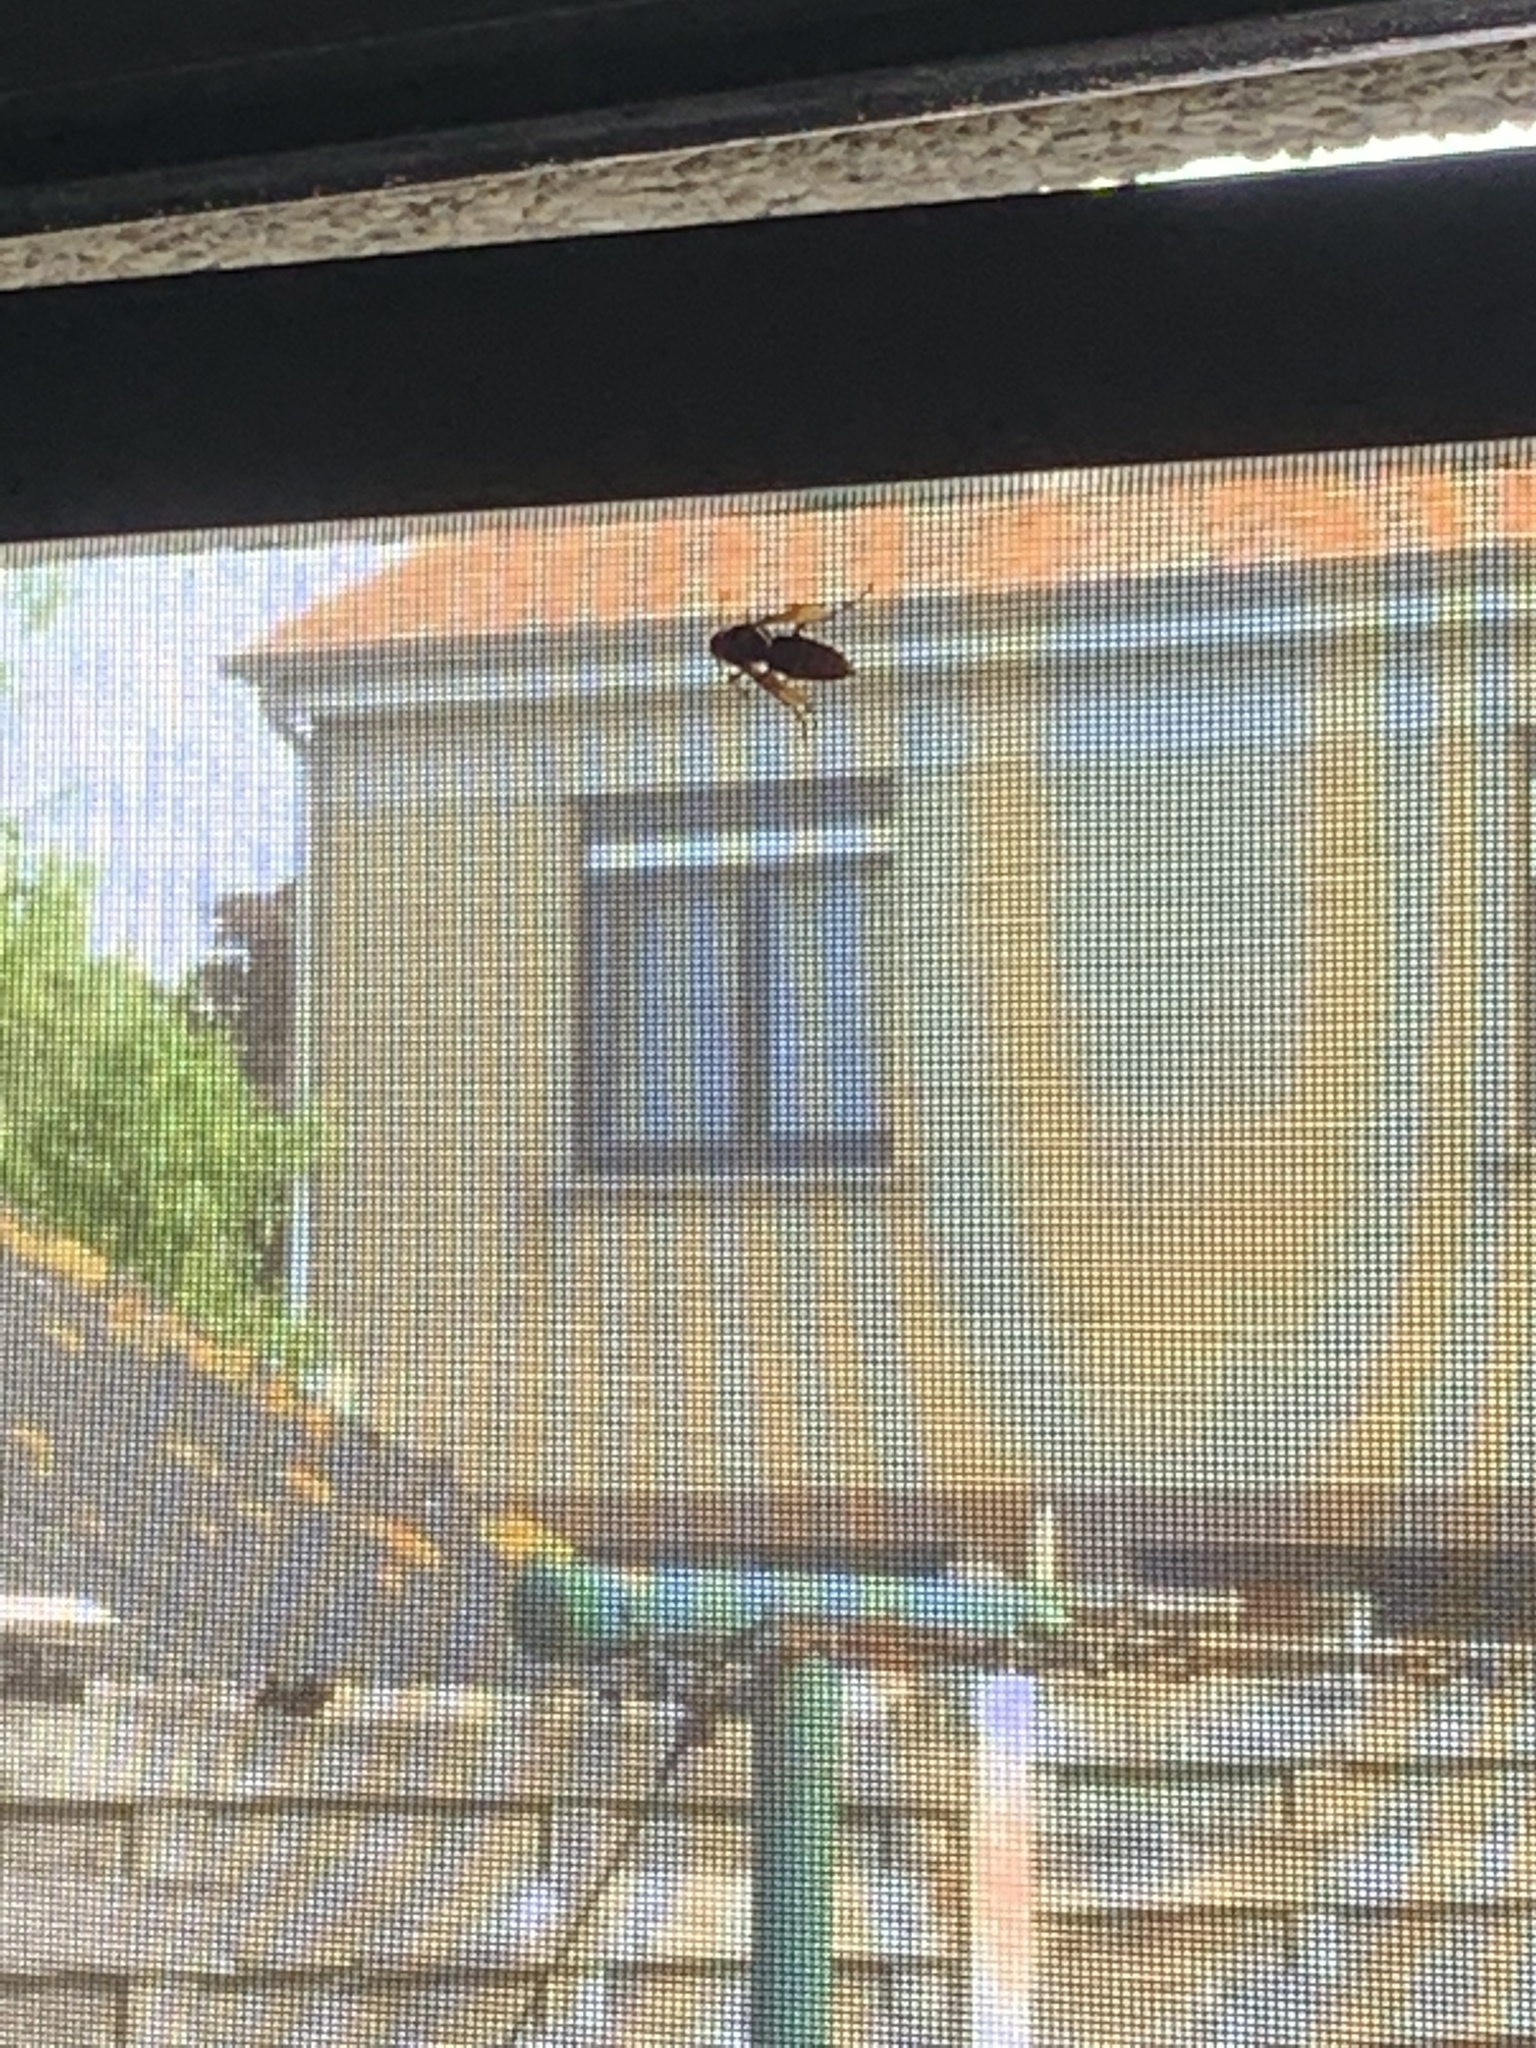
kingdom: Animalia
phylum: Arthropoda
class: Insecta
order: Hymenoptera
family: Vespidae
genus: Vespa
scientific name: Vespa crabro
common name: Hornet
